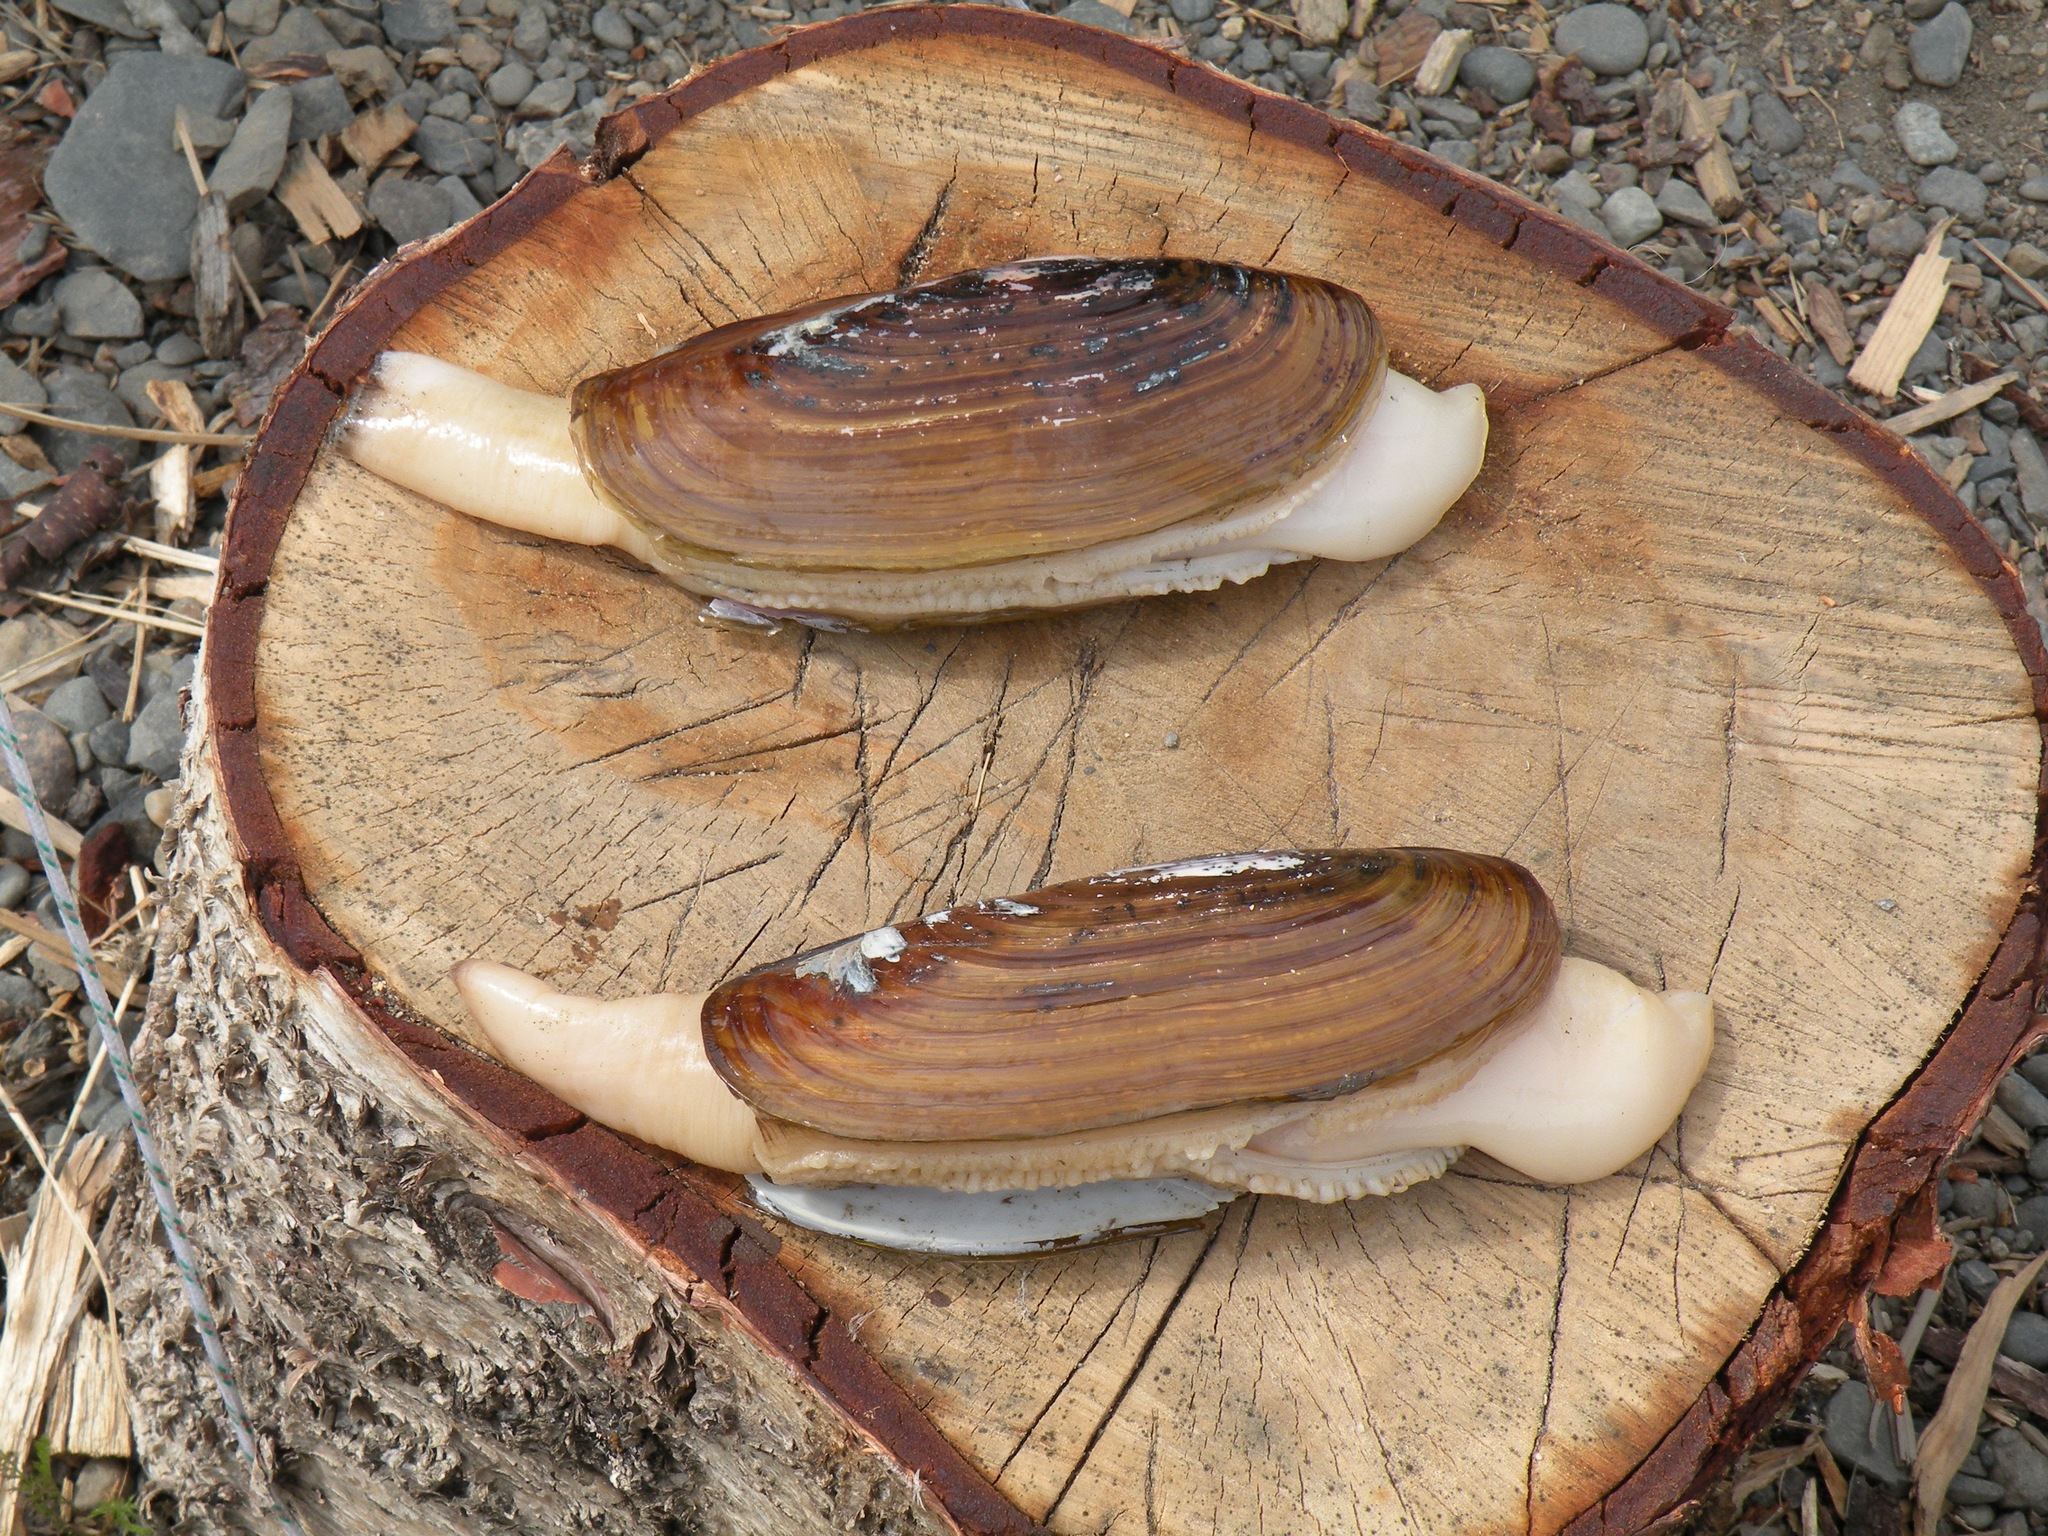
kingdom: Animalia
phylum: Mollusca
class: Bivalvia
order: Adapedonta
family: Pharidae
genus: Siliqua
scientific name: Siliqua patula
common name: Pacific razor clam
